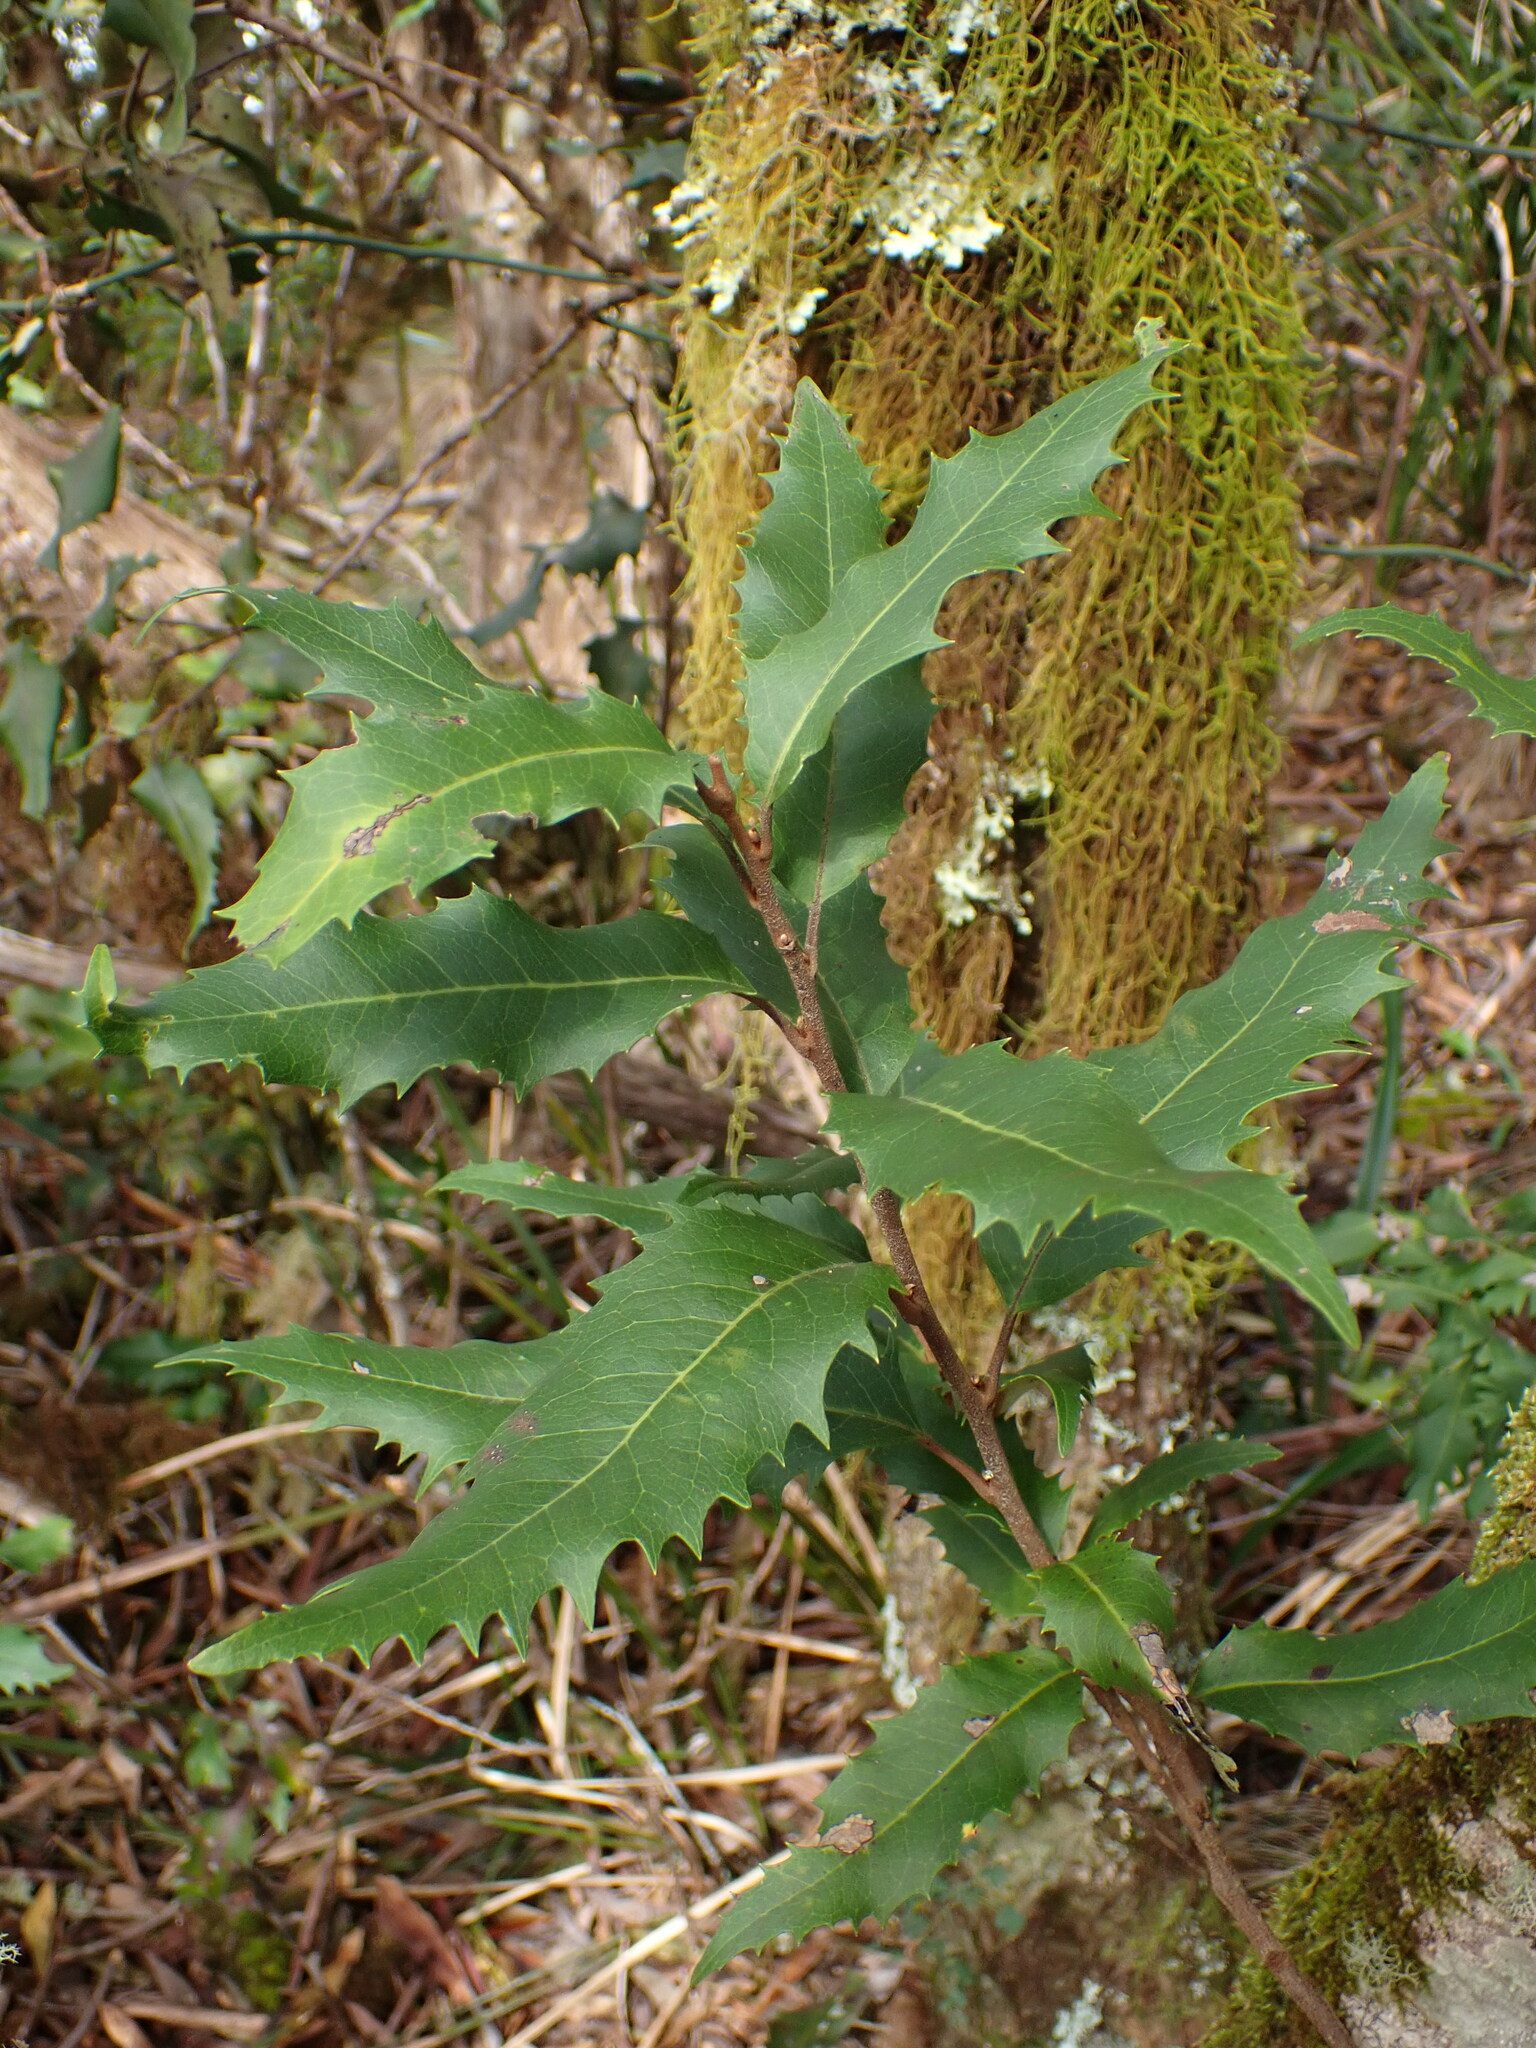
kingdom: Plantae
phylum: Tracheophyta
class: Magnoliopsida
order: Proteales
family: Proteaceae
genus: Lomatia
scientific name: Lomatia fraseri
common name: Forest lomatia
